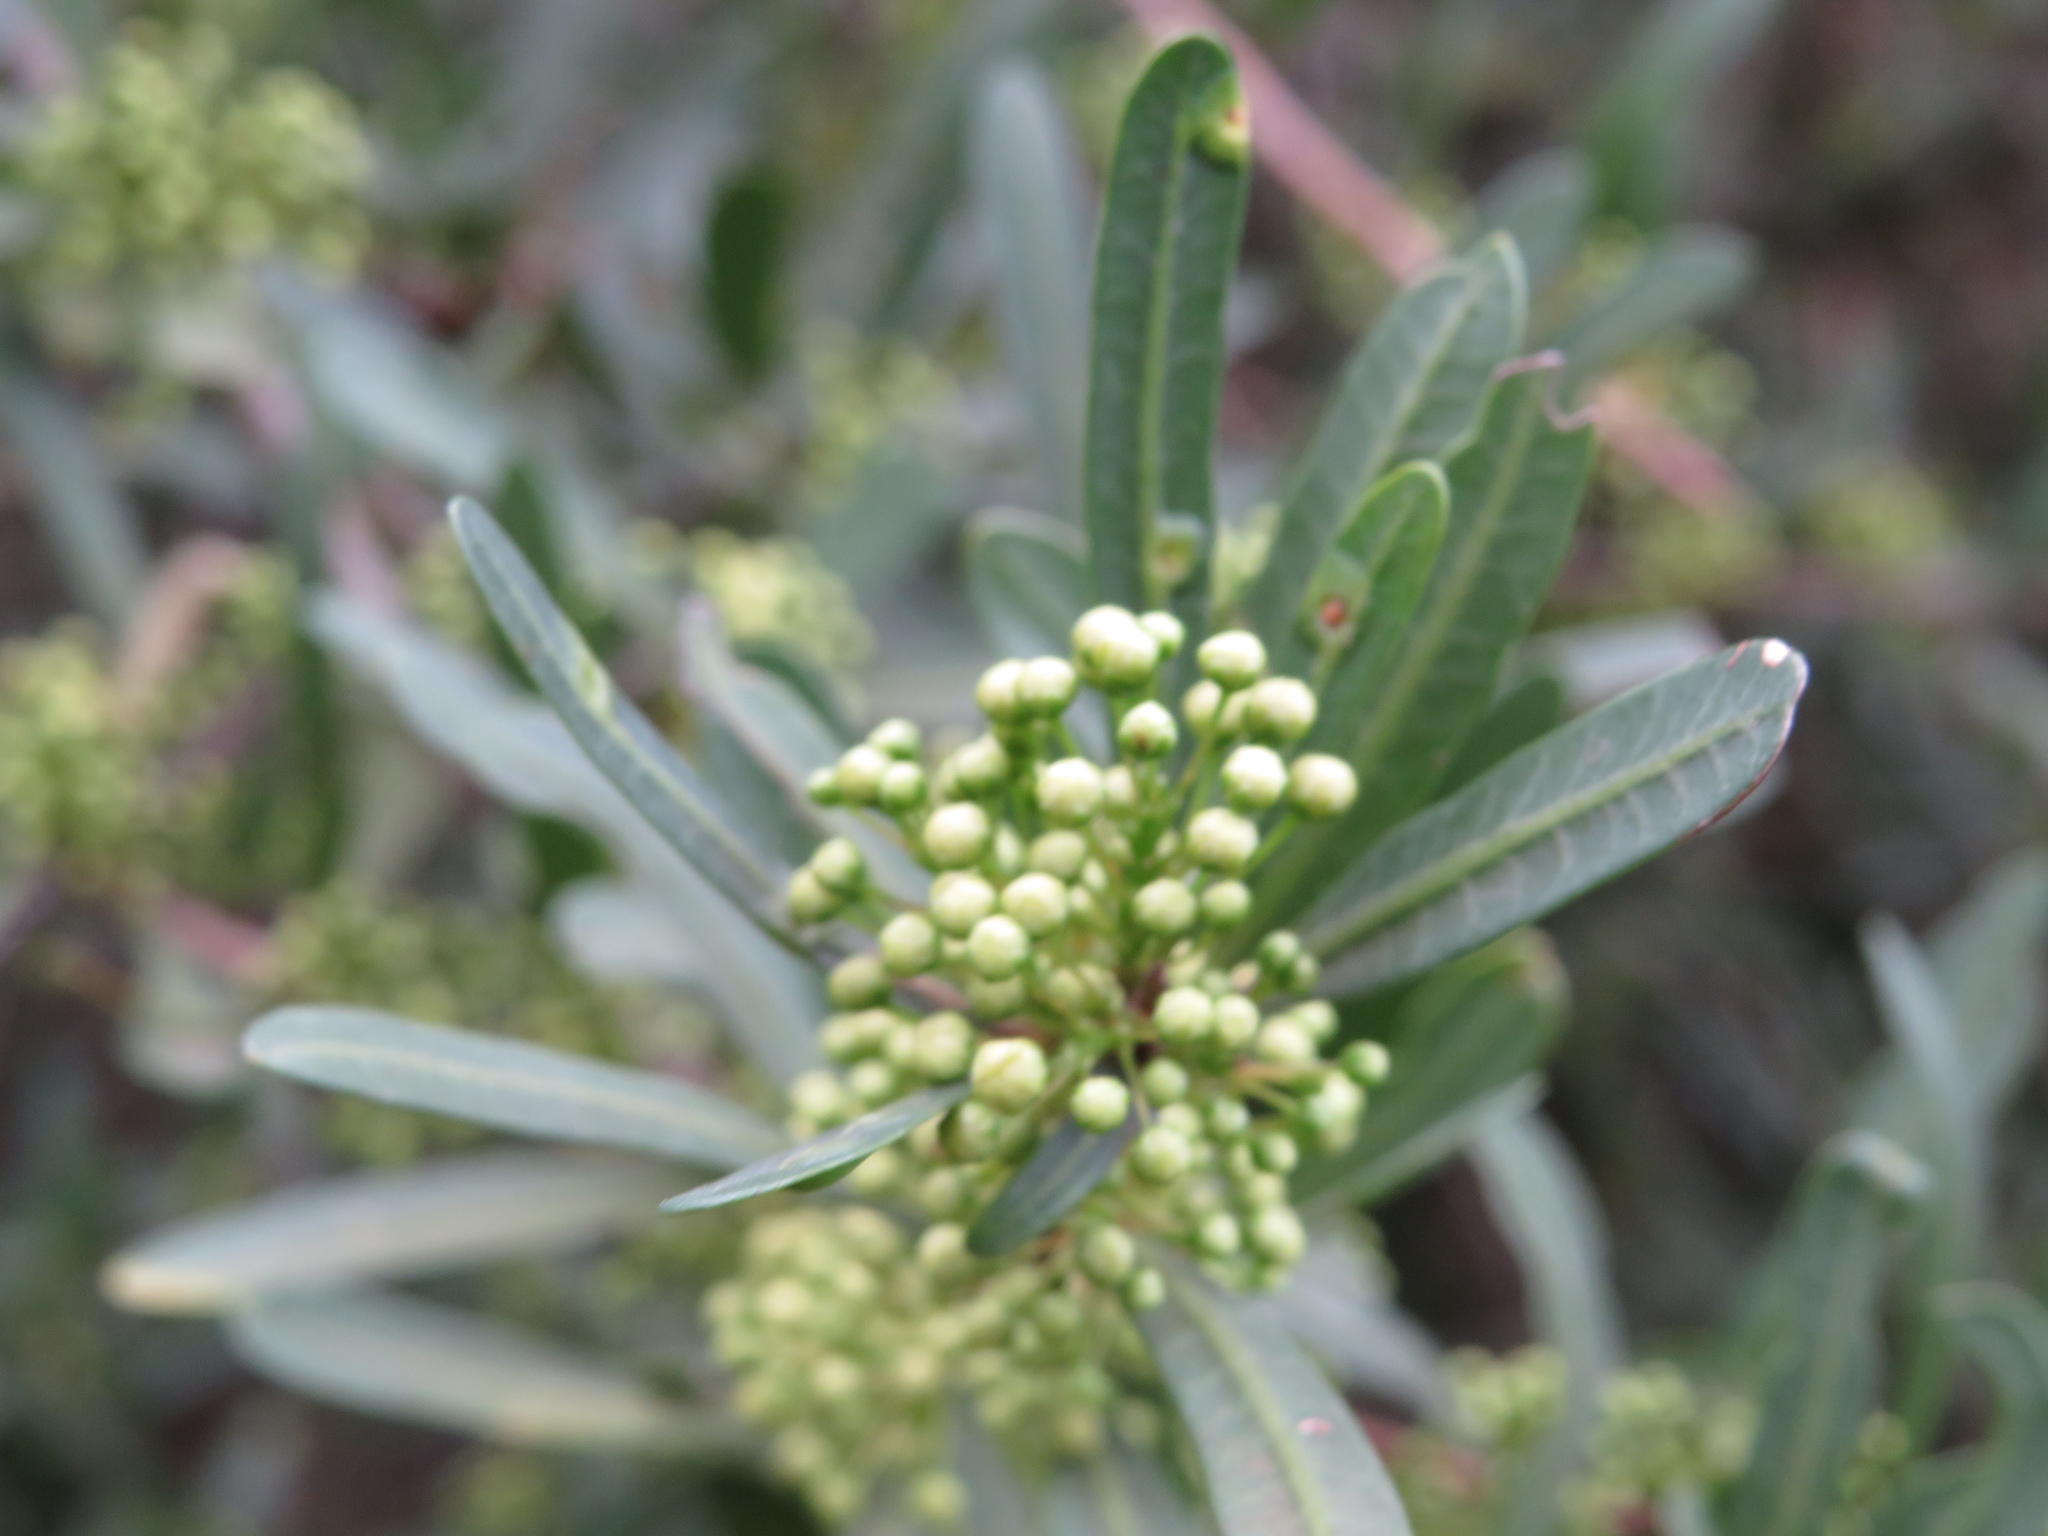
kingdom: Plantae
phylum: Tracheophyta
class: Magnoliopsida
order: Sapindales
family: Anacardiaceae
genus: Schinus
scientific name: Schinus longifolia
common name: Longleaf peppertree
